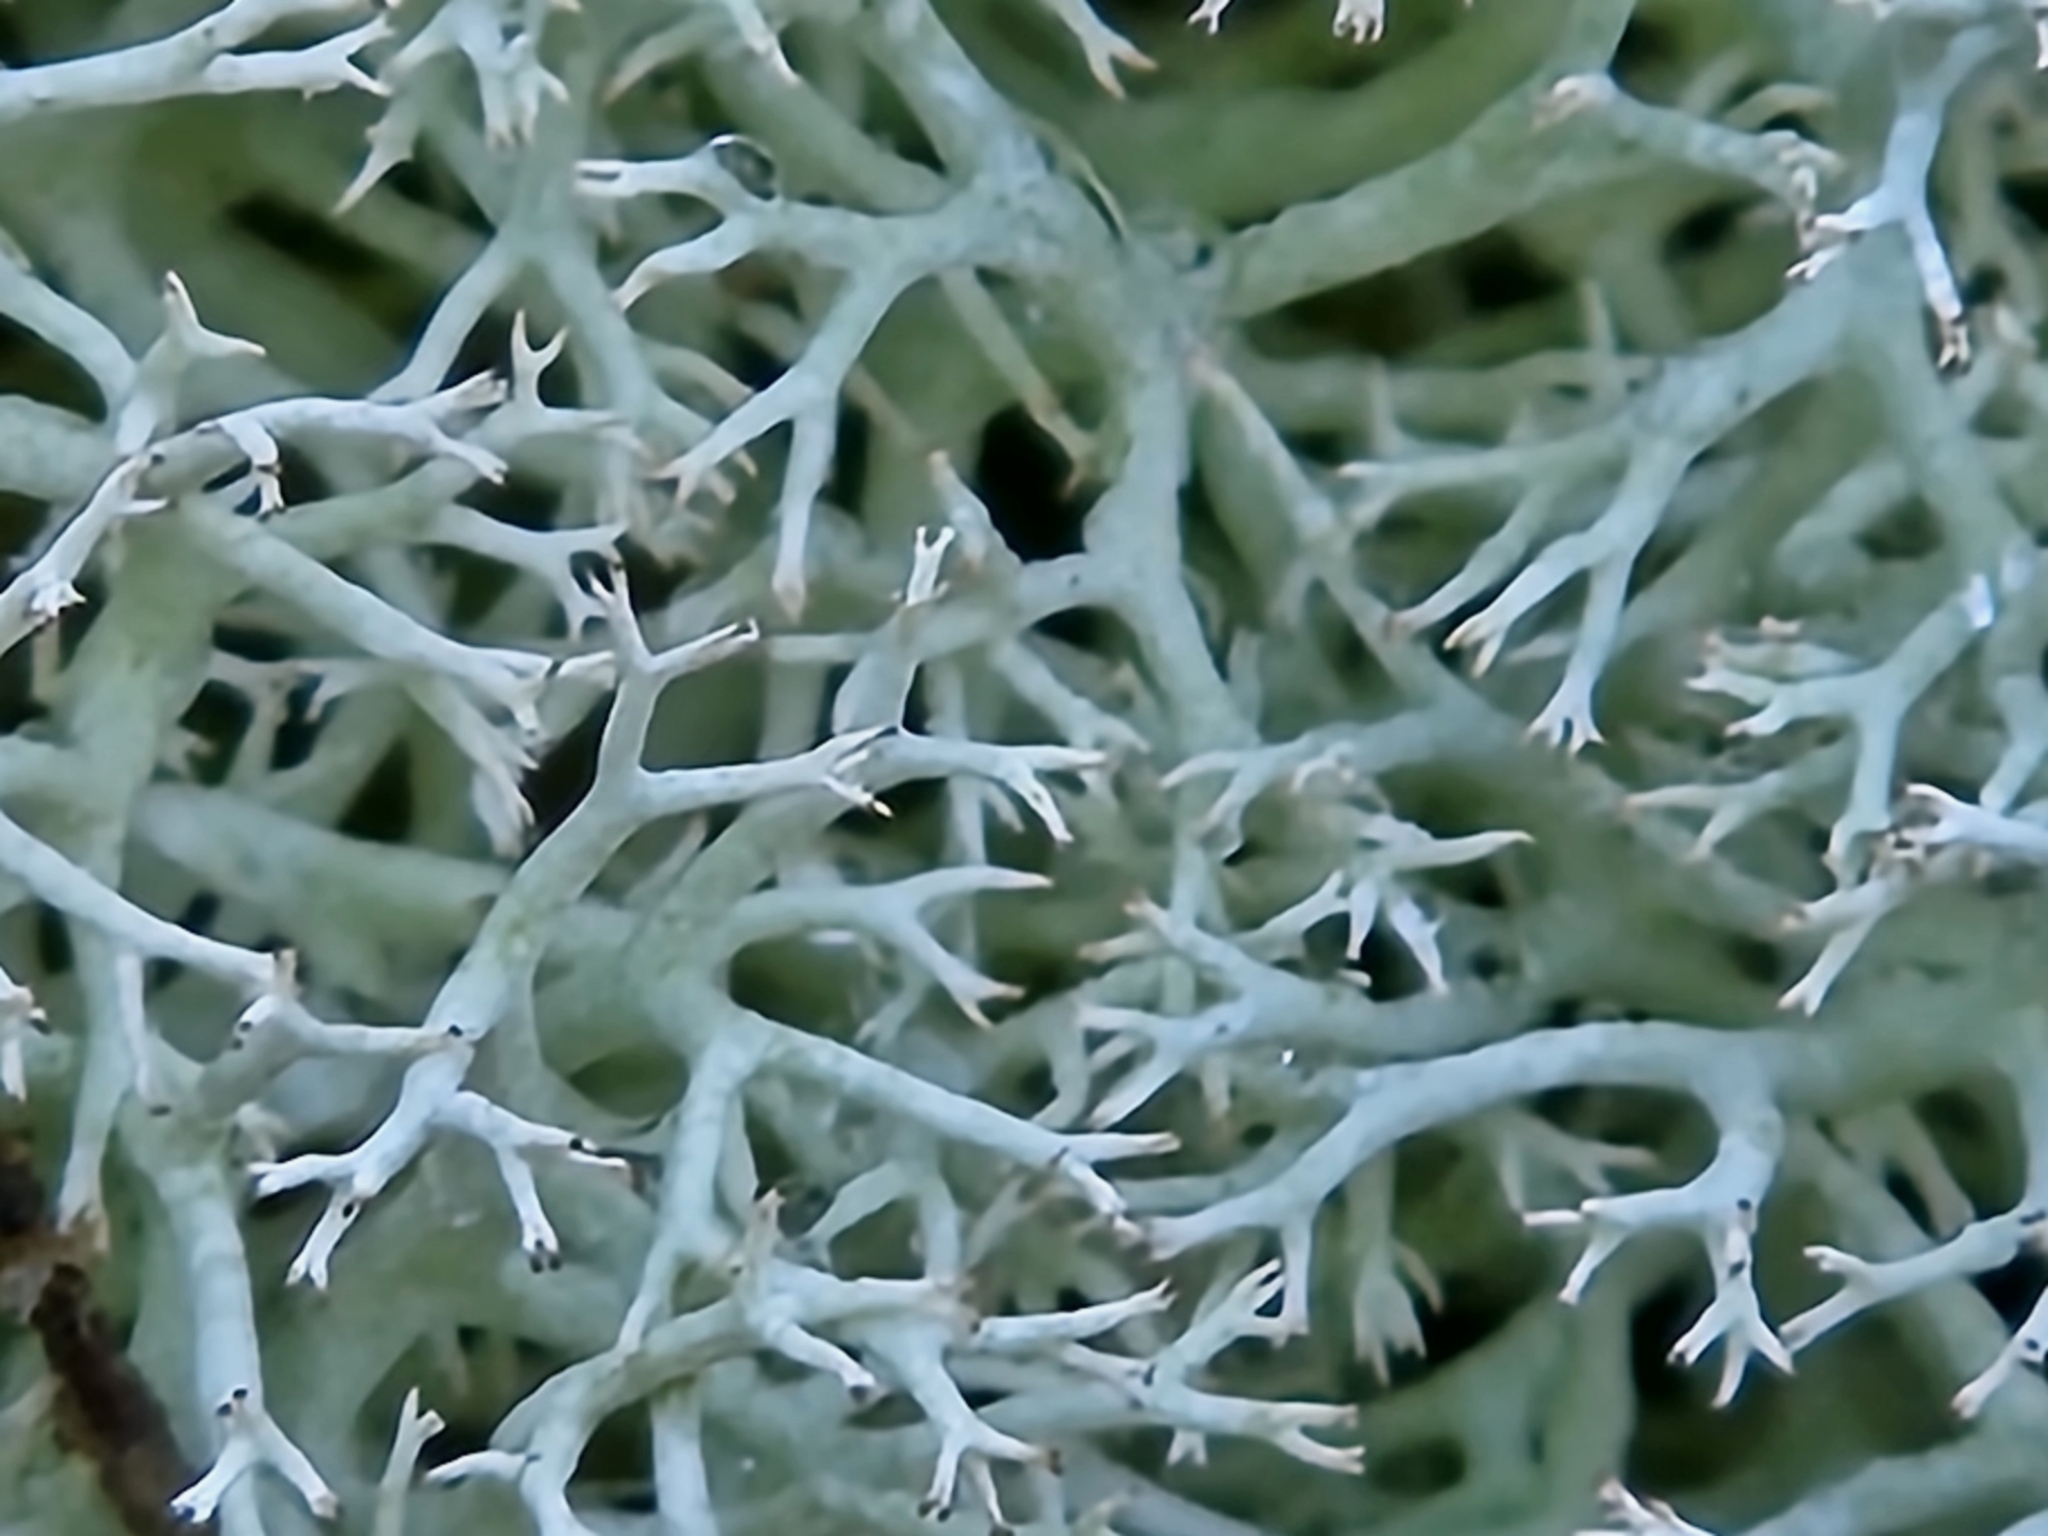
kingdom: Fungi
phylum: Ascomycota
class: Lecanoromycetes
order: Lecanorales
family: Cladoniaceae
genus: Cladonia
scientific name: Cladonia mediterranea
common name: Reindeer lichen
